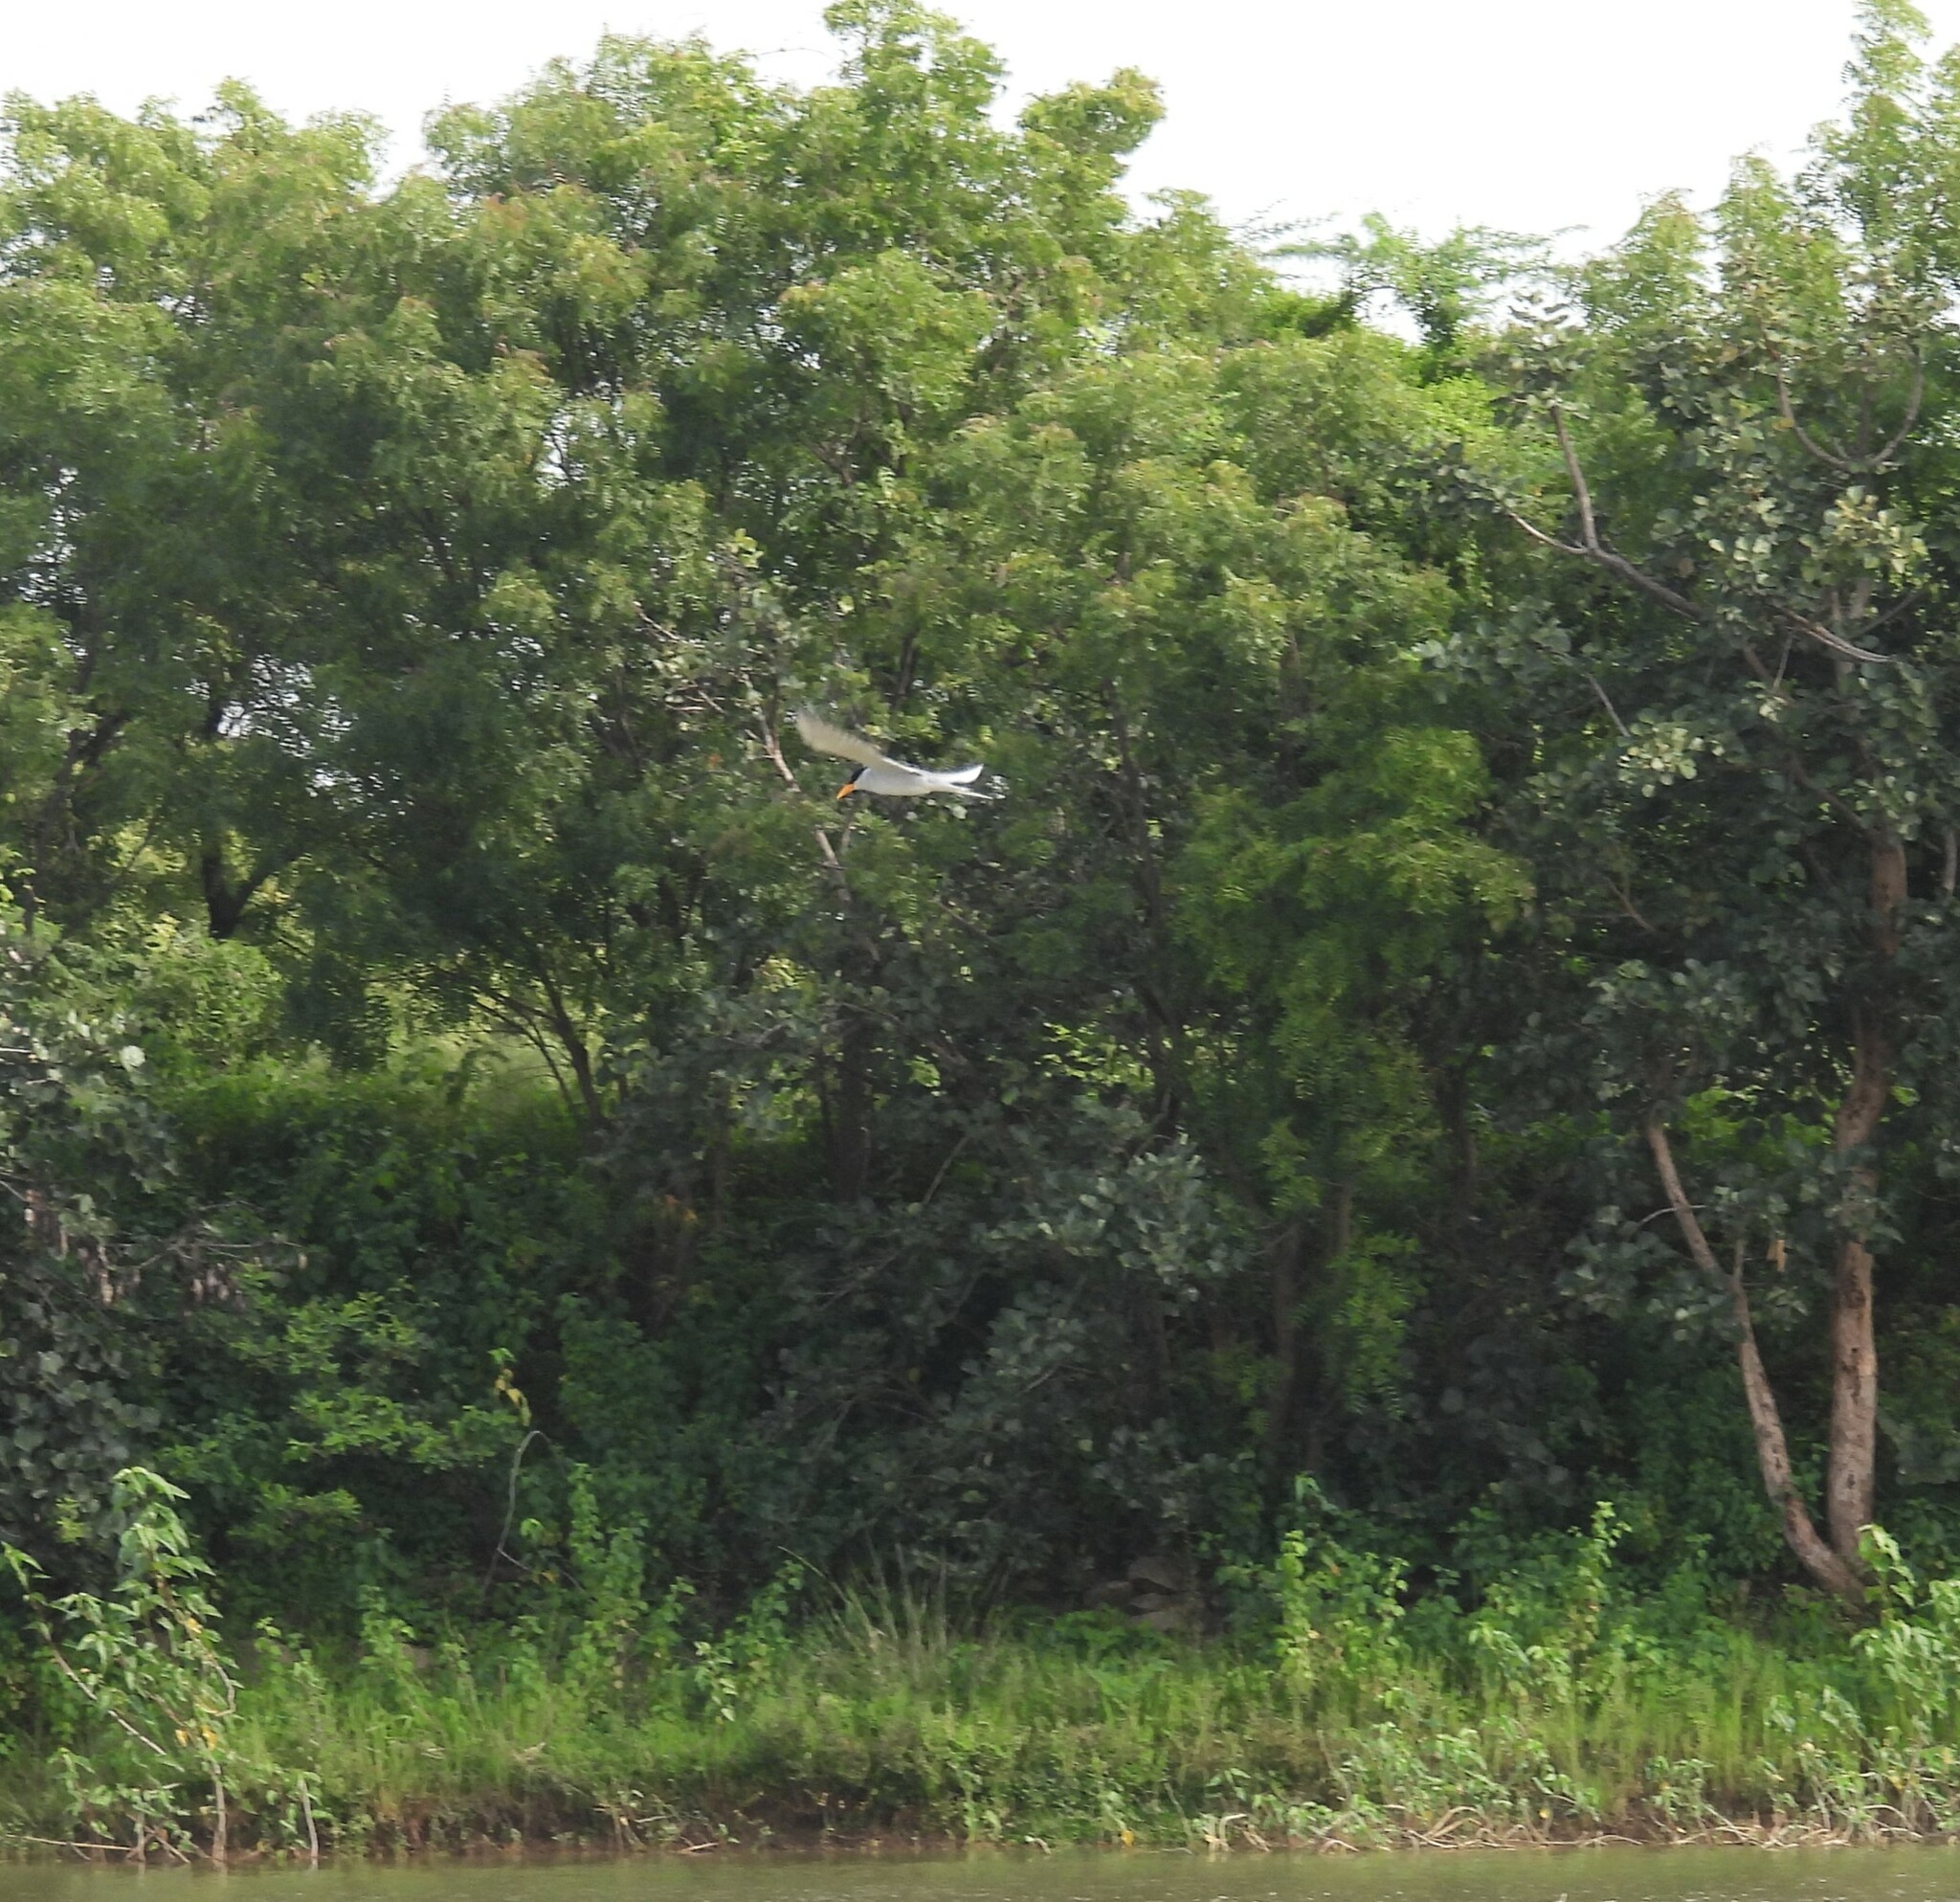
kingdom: Animalia
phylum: Chordata
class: Aves
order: Charadriiformes
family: Laridae
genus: Sterna
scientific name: Sterna aurantia
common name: River tern
